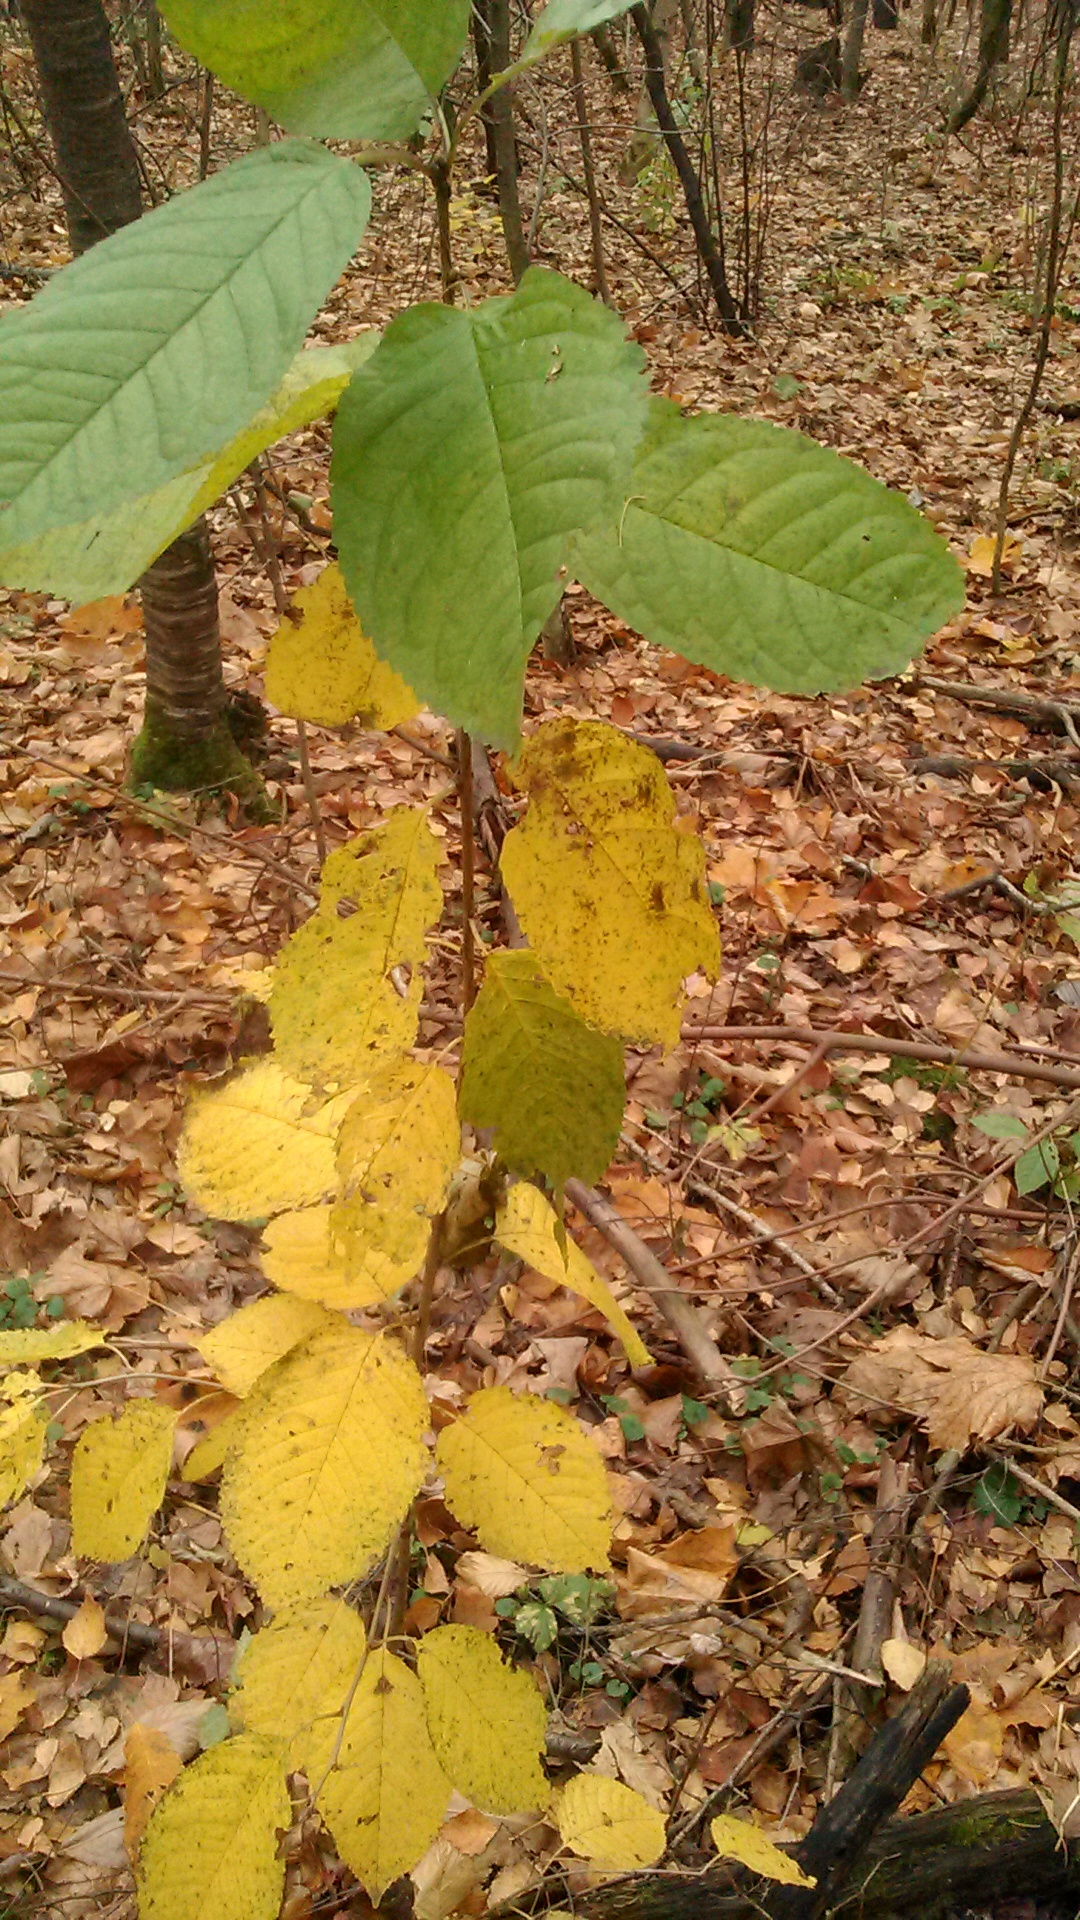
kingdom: Plantae
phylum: Tracheophyta
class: Magnoliopsida
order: Rosales
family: Rosaceae
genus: Prunus
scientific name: Prunus padus
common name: Bird cherry
